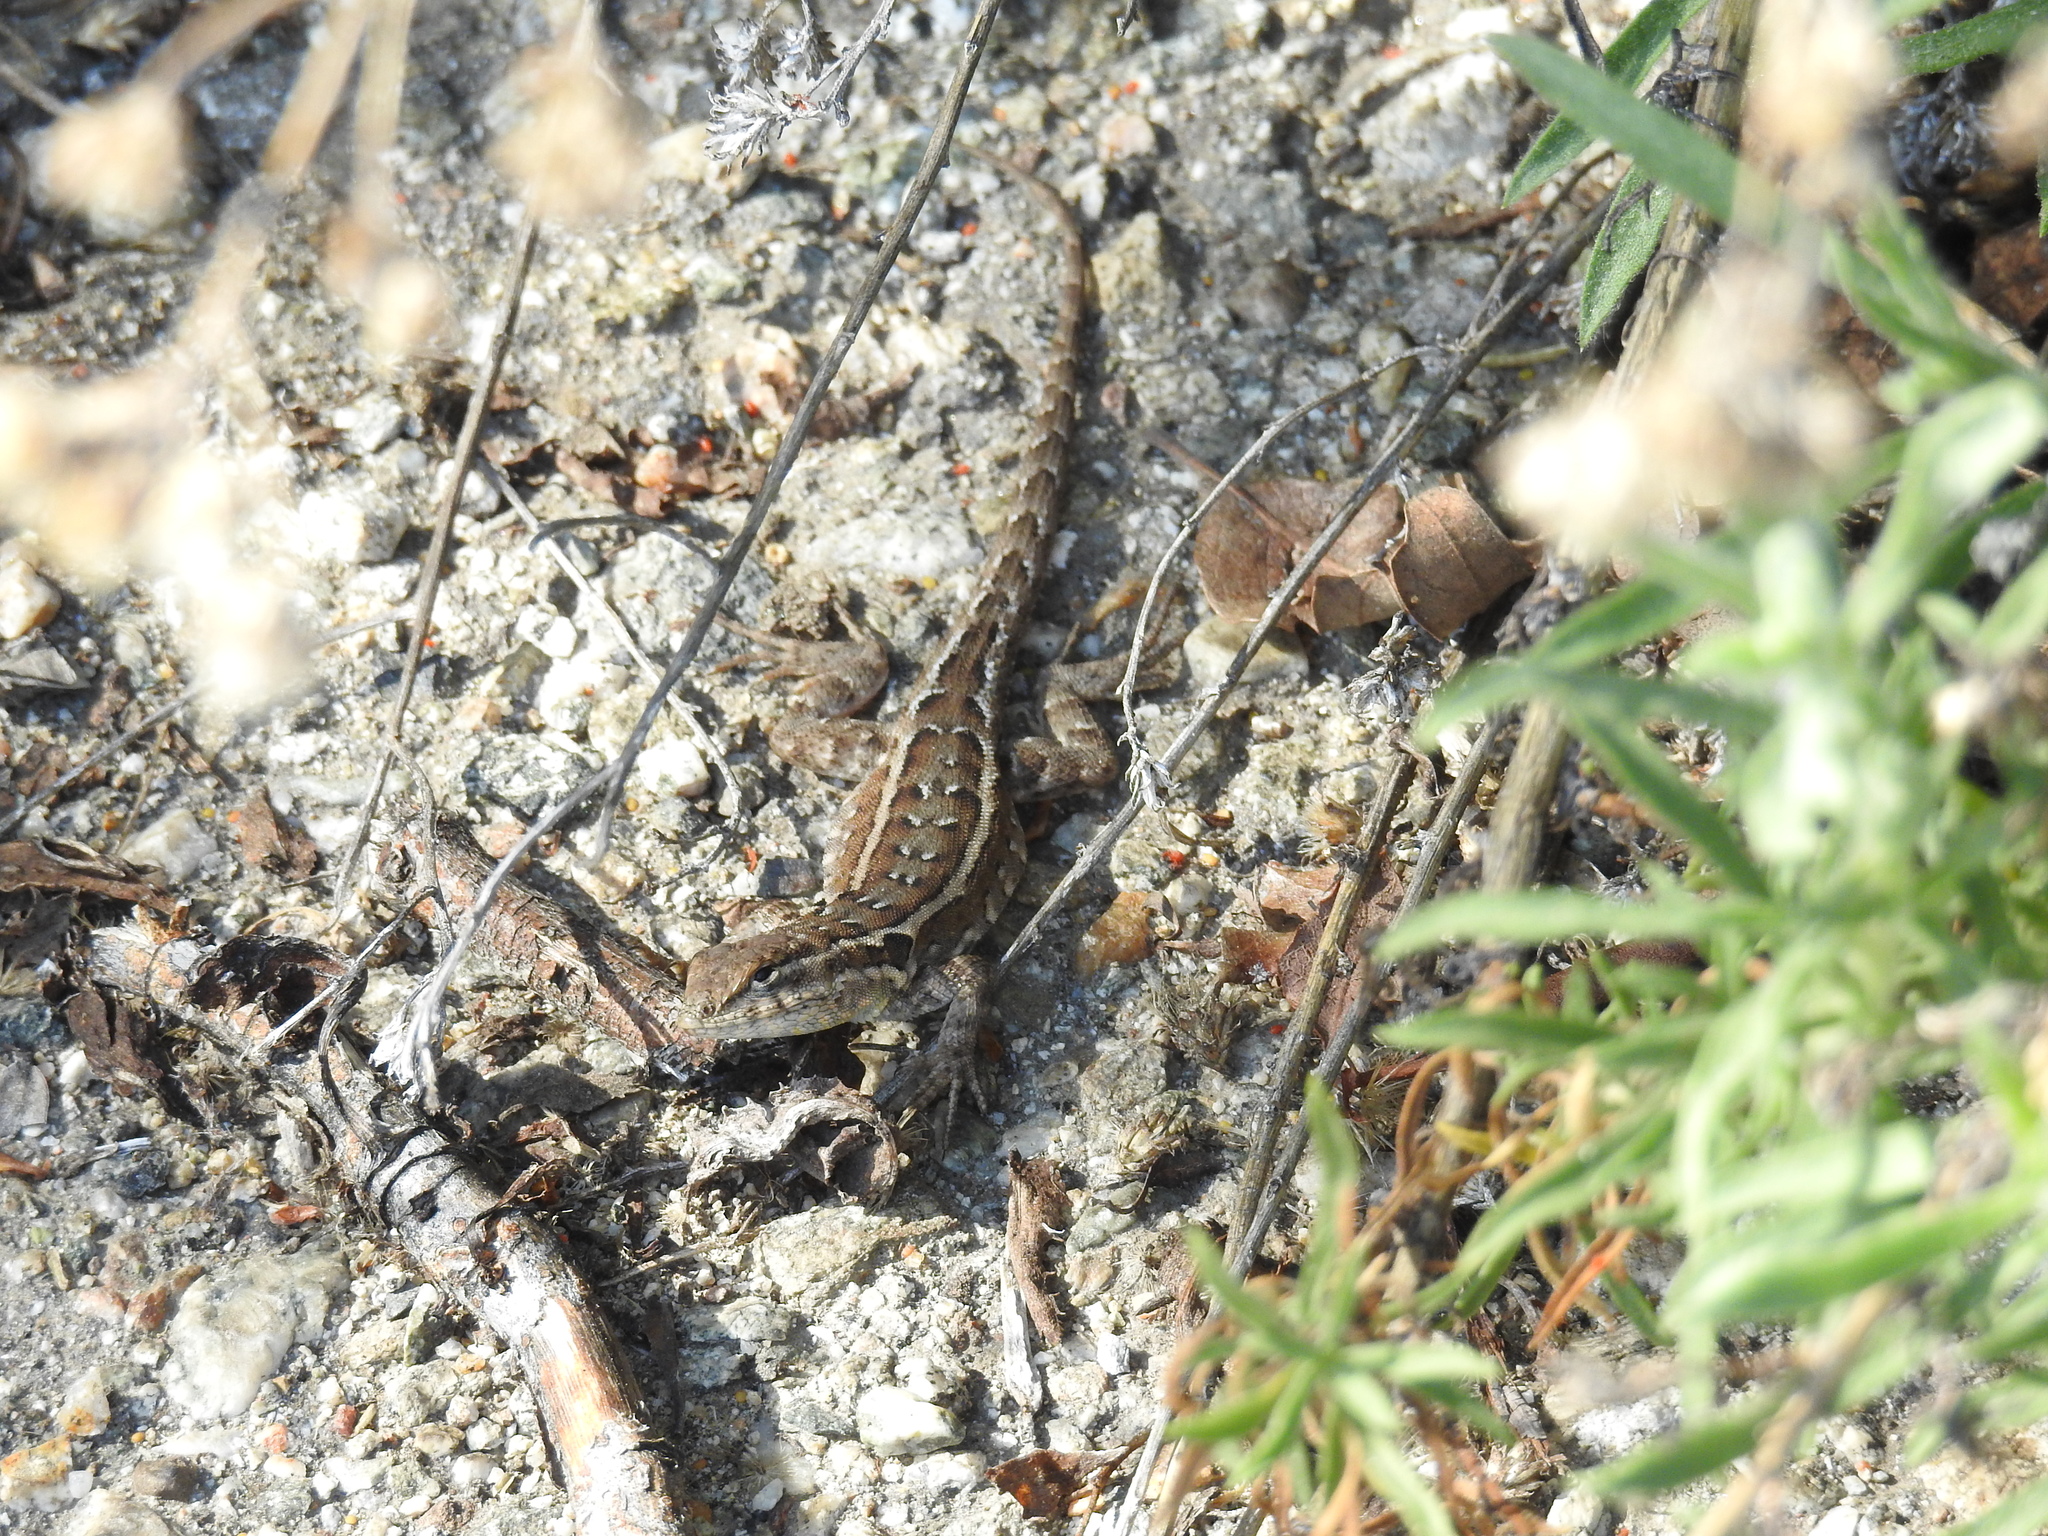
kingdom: Animalia
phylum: Chordata
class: Squamata
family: Phrynosomatidae
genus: Uta
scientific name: Uta stansburiana
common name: Side-blotched lizard
